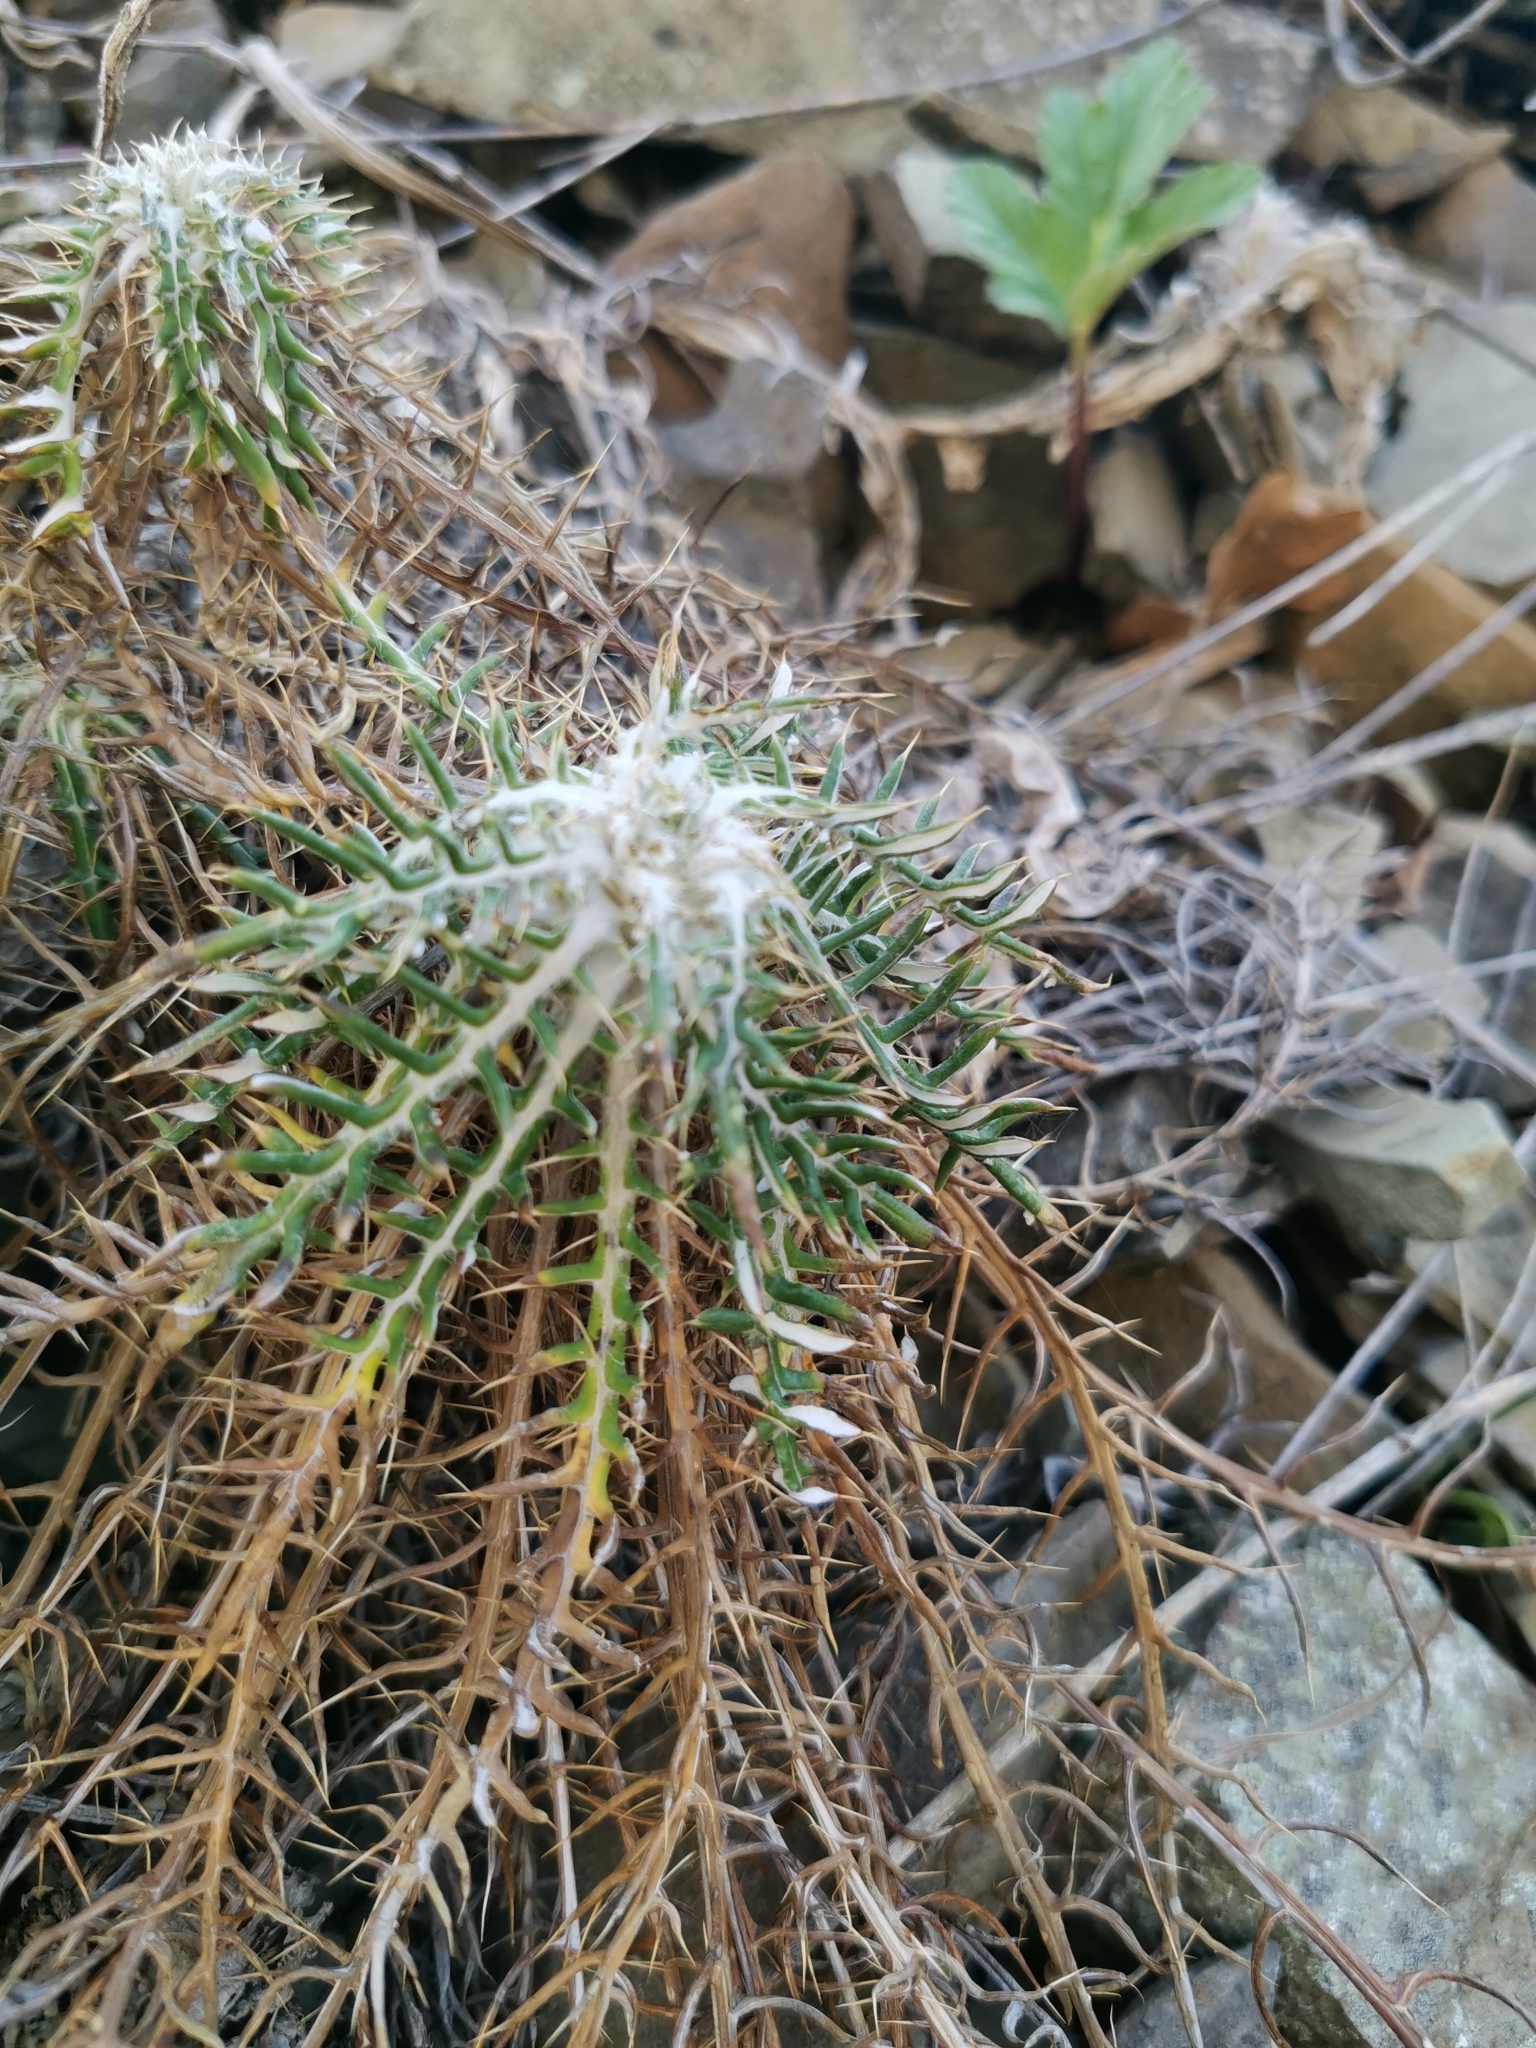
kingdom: Plantae
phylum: Tracheophyta
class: Magnoliopsida
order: Asterales
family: Asteraceae
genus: Ptilostemon
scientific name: Ptilostemon echinocephalus
